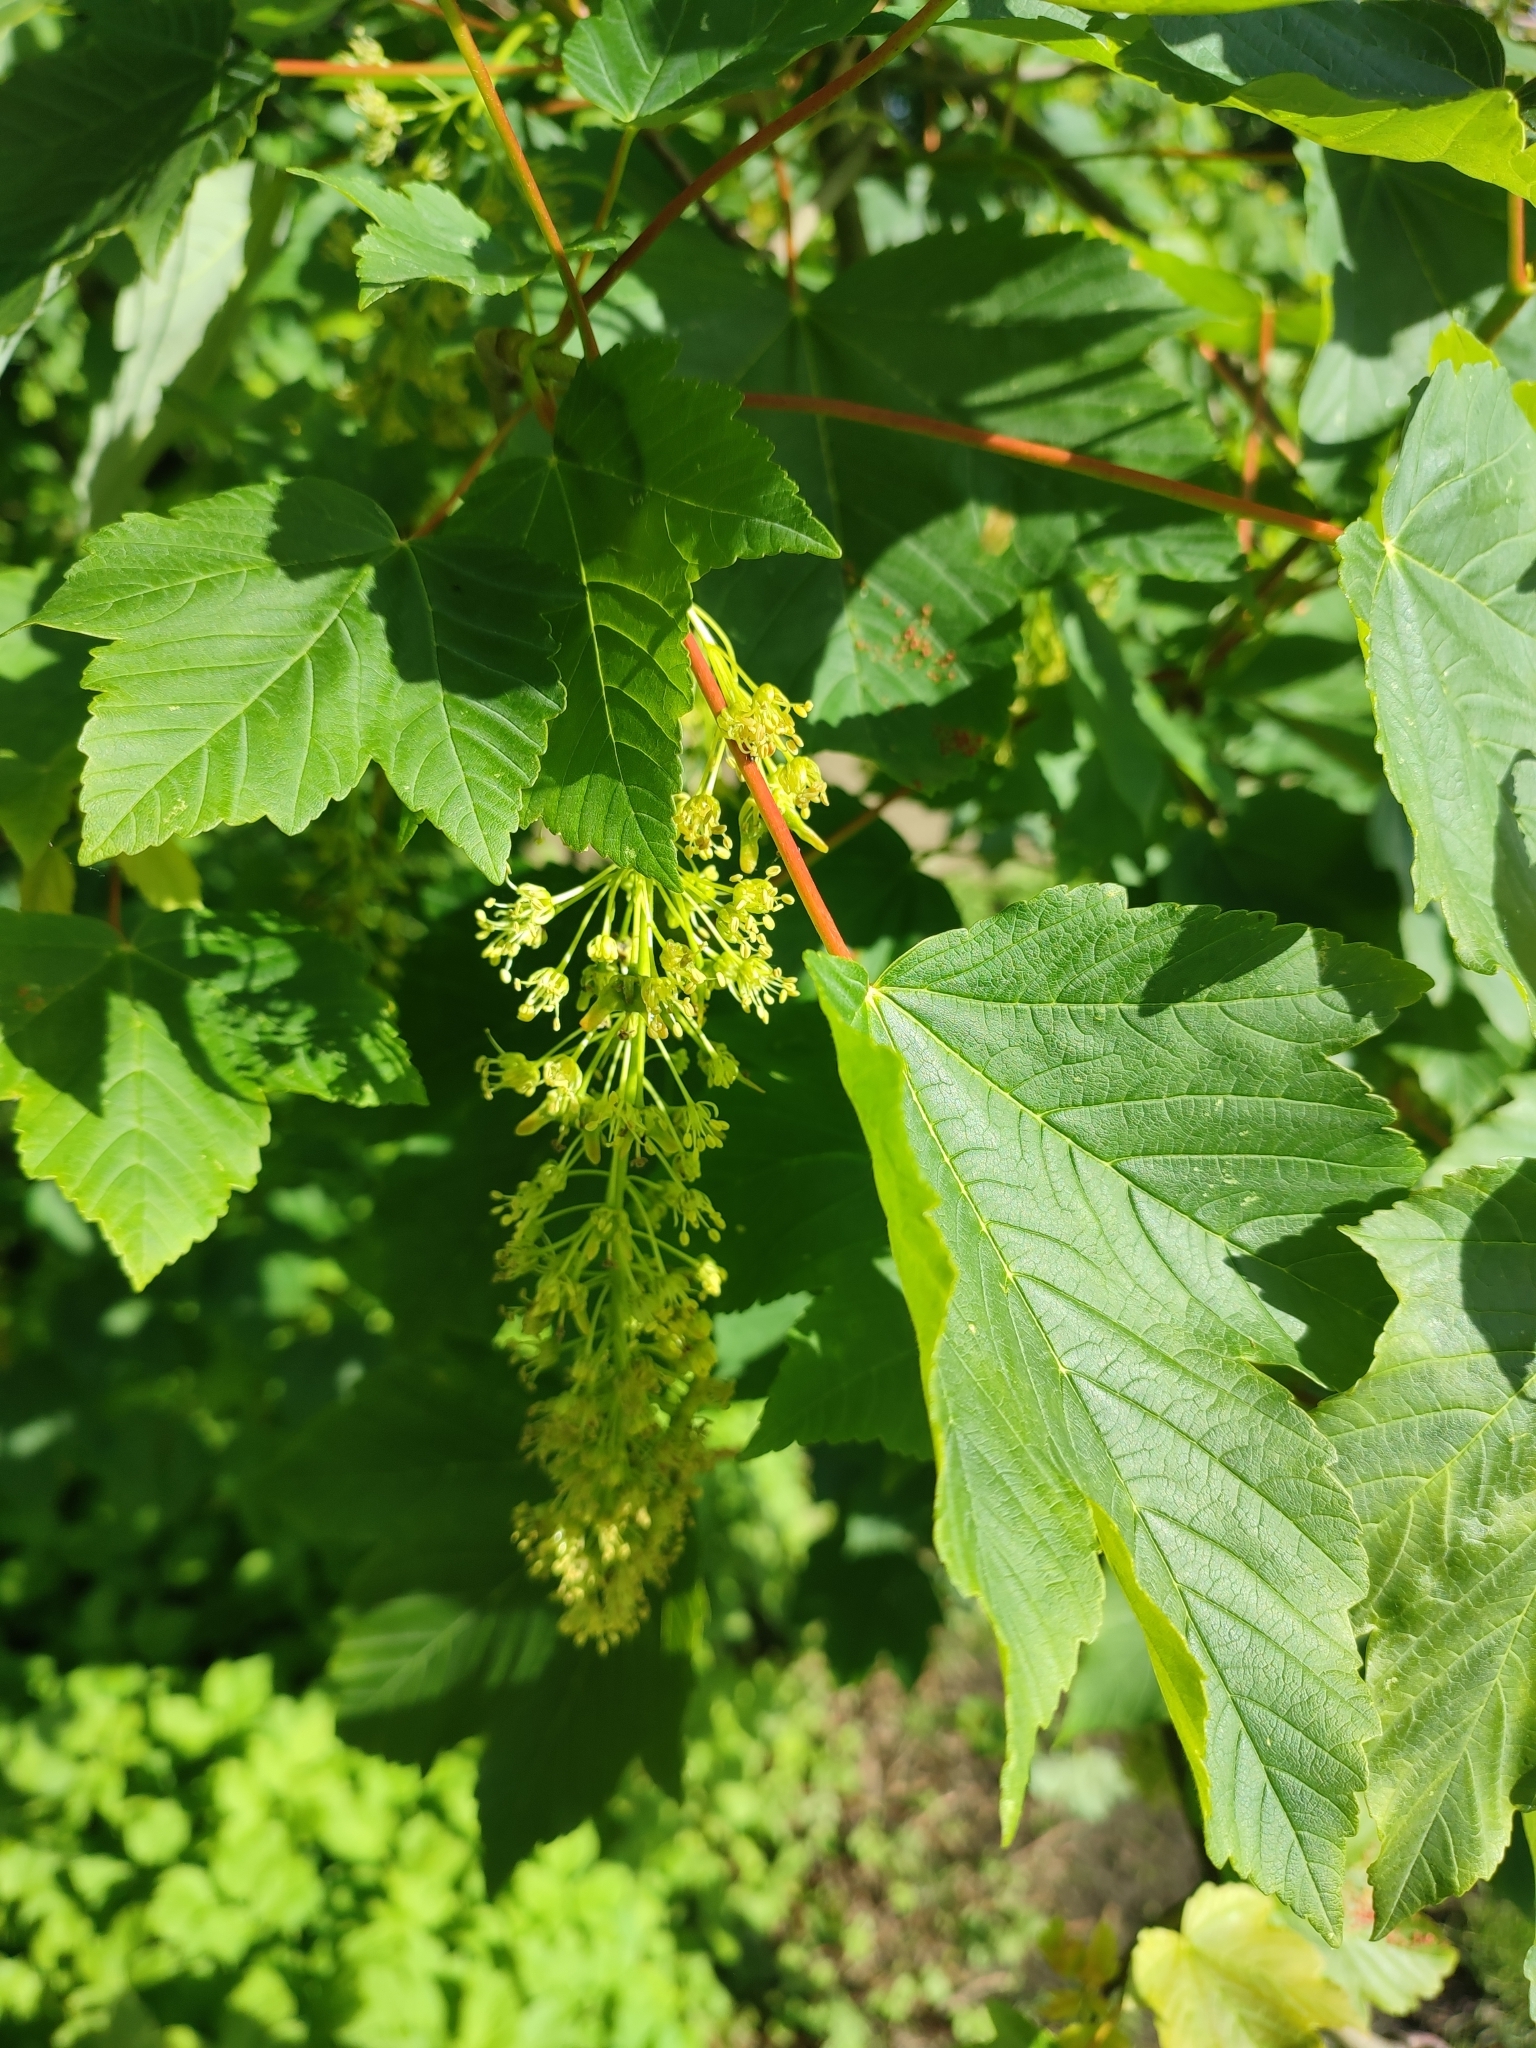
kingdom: Plantae
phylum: Tracheophyta
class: Magnoliopsida
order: Sapindales
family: Sapindaceae
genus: Acer
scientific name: Acer pseudoplatanus
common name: Sycamore
